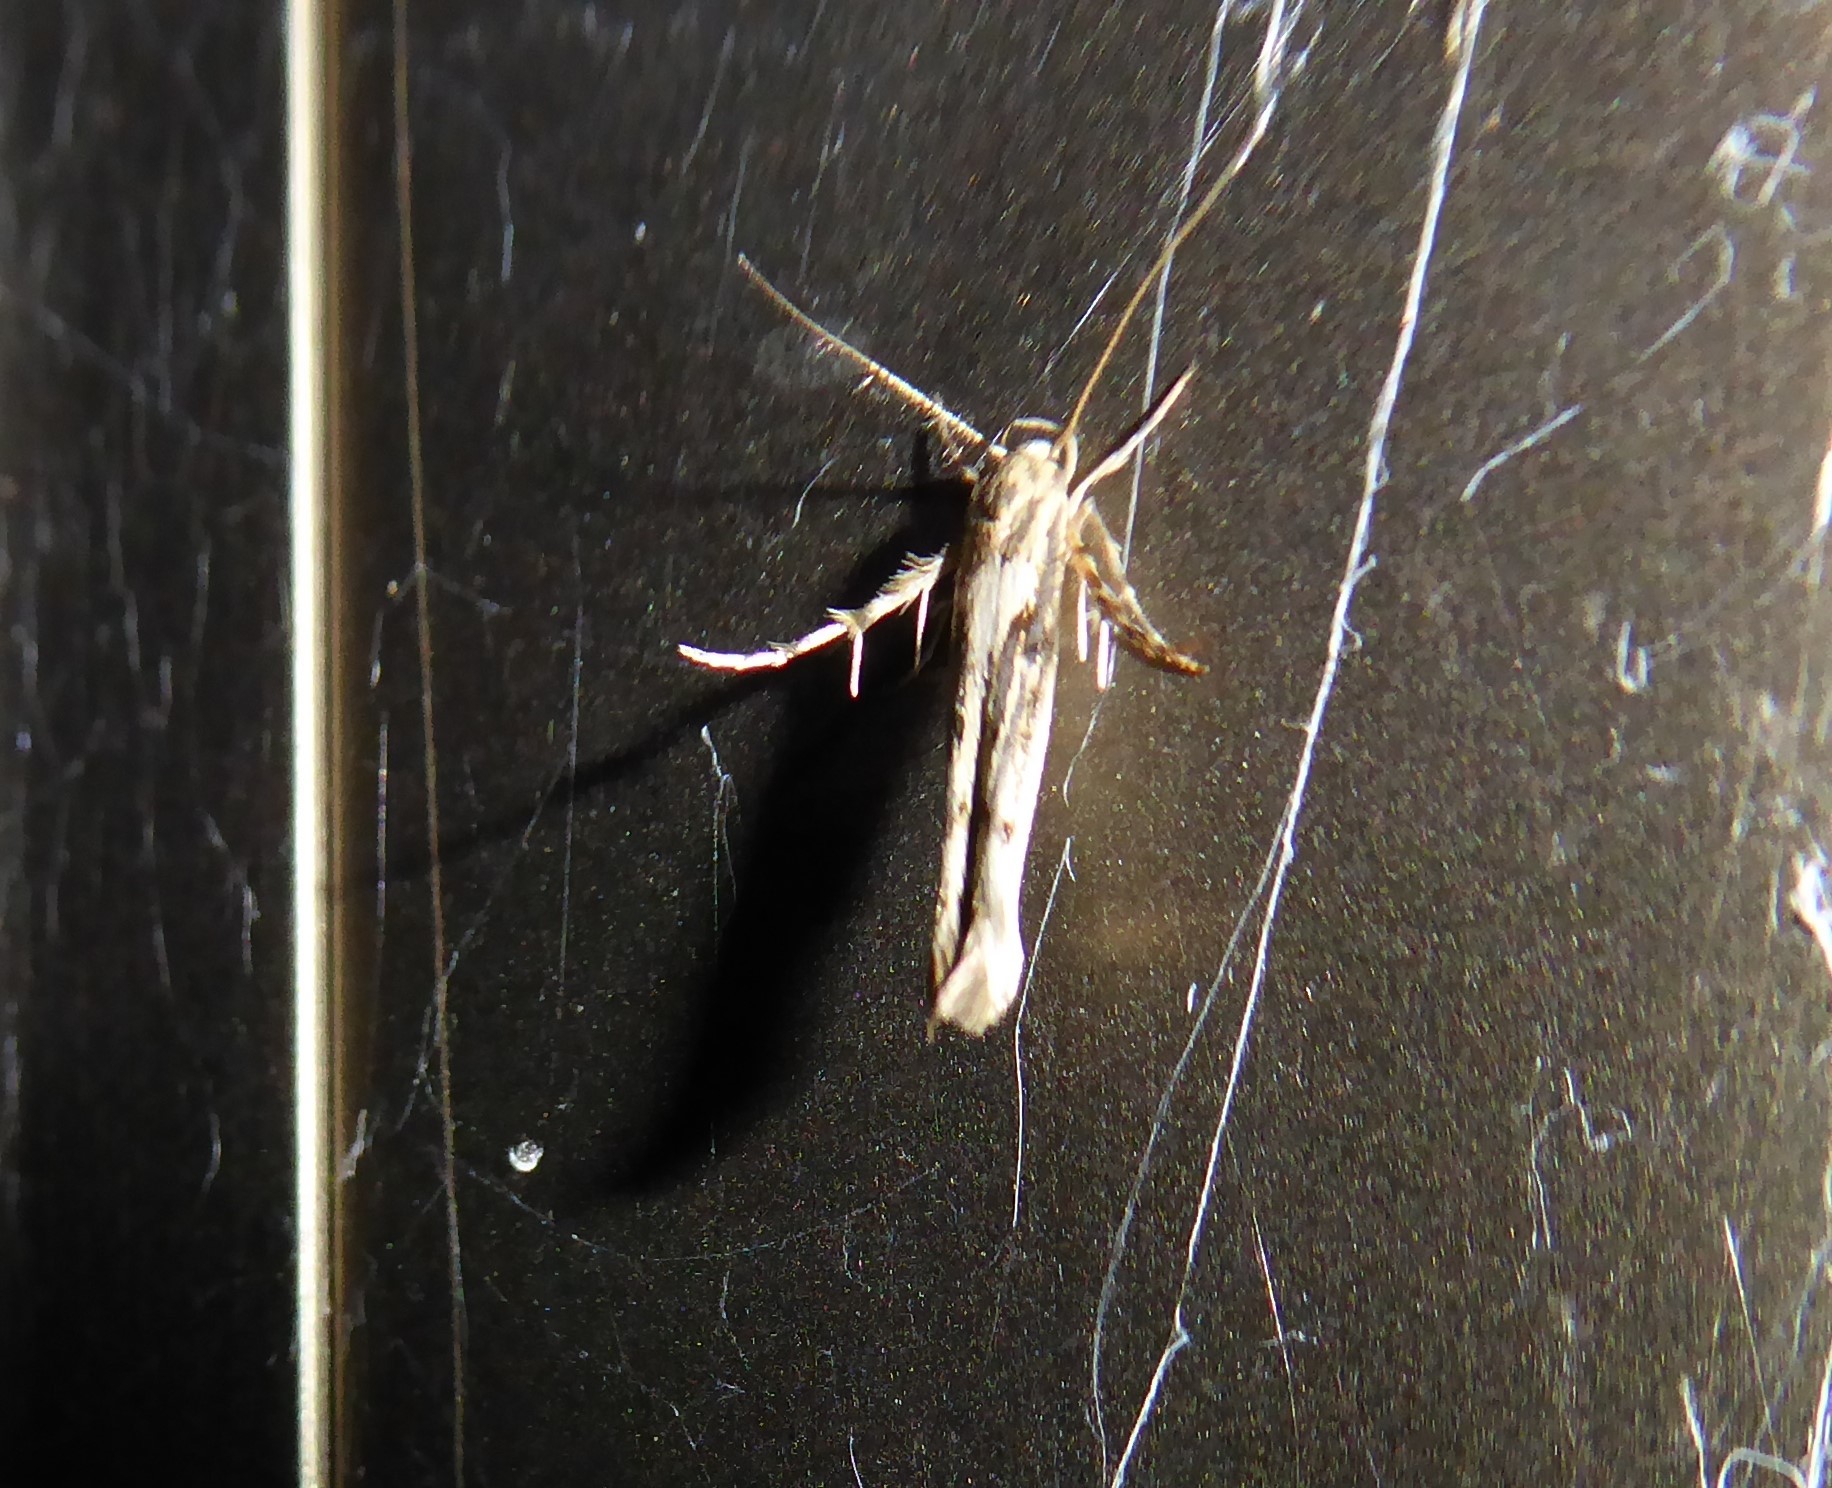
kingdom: Animalia
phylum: Arthropoda
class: Insecta
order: Lepidoptera
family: Stathmopodidae
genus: Stathmopoda
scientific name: Stathmopoda plumbiflua
